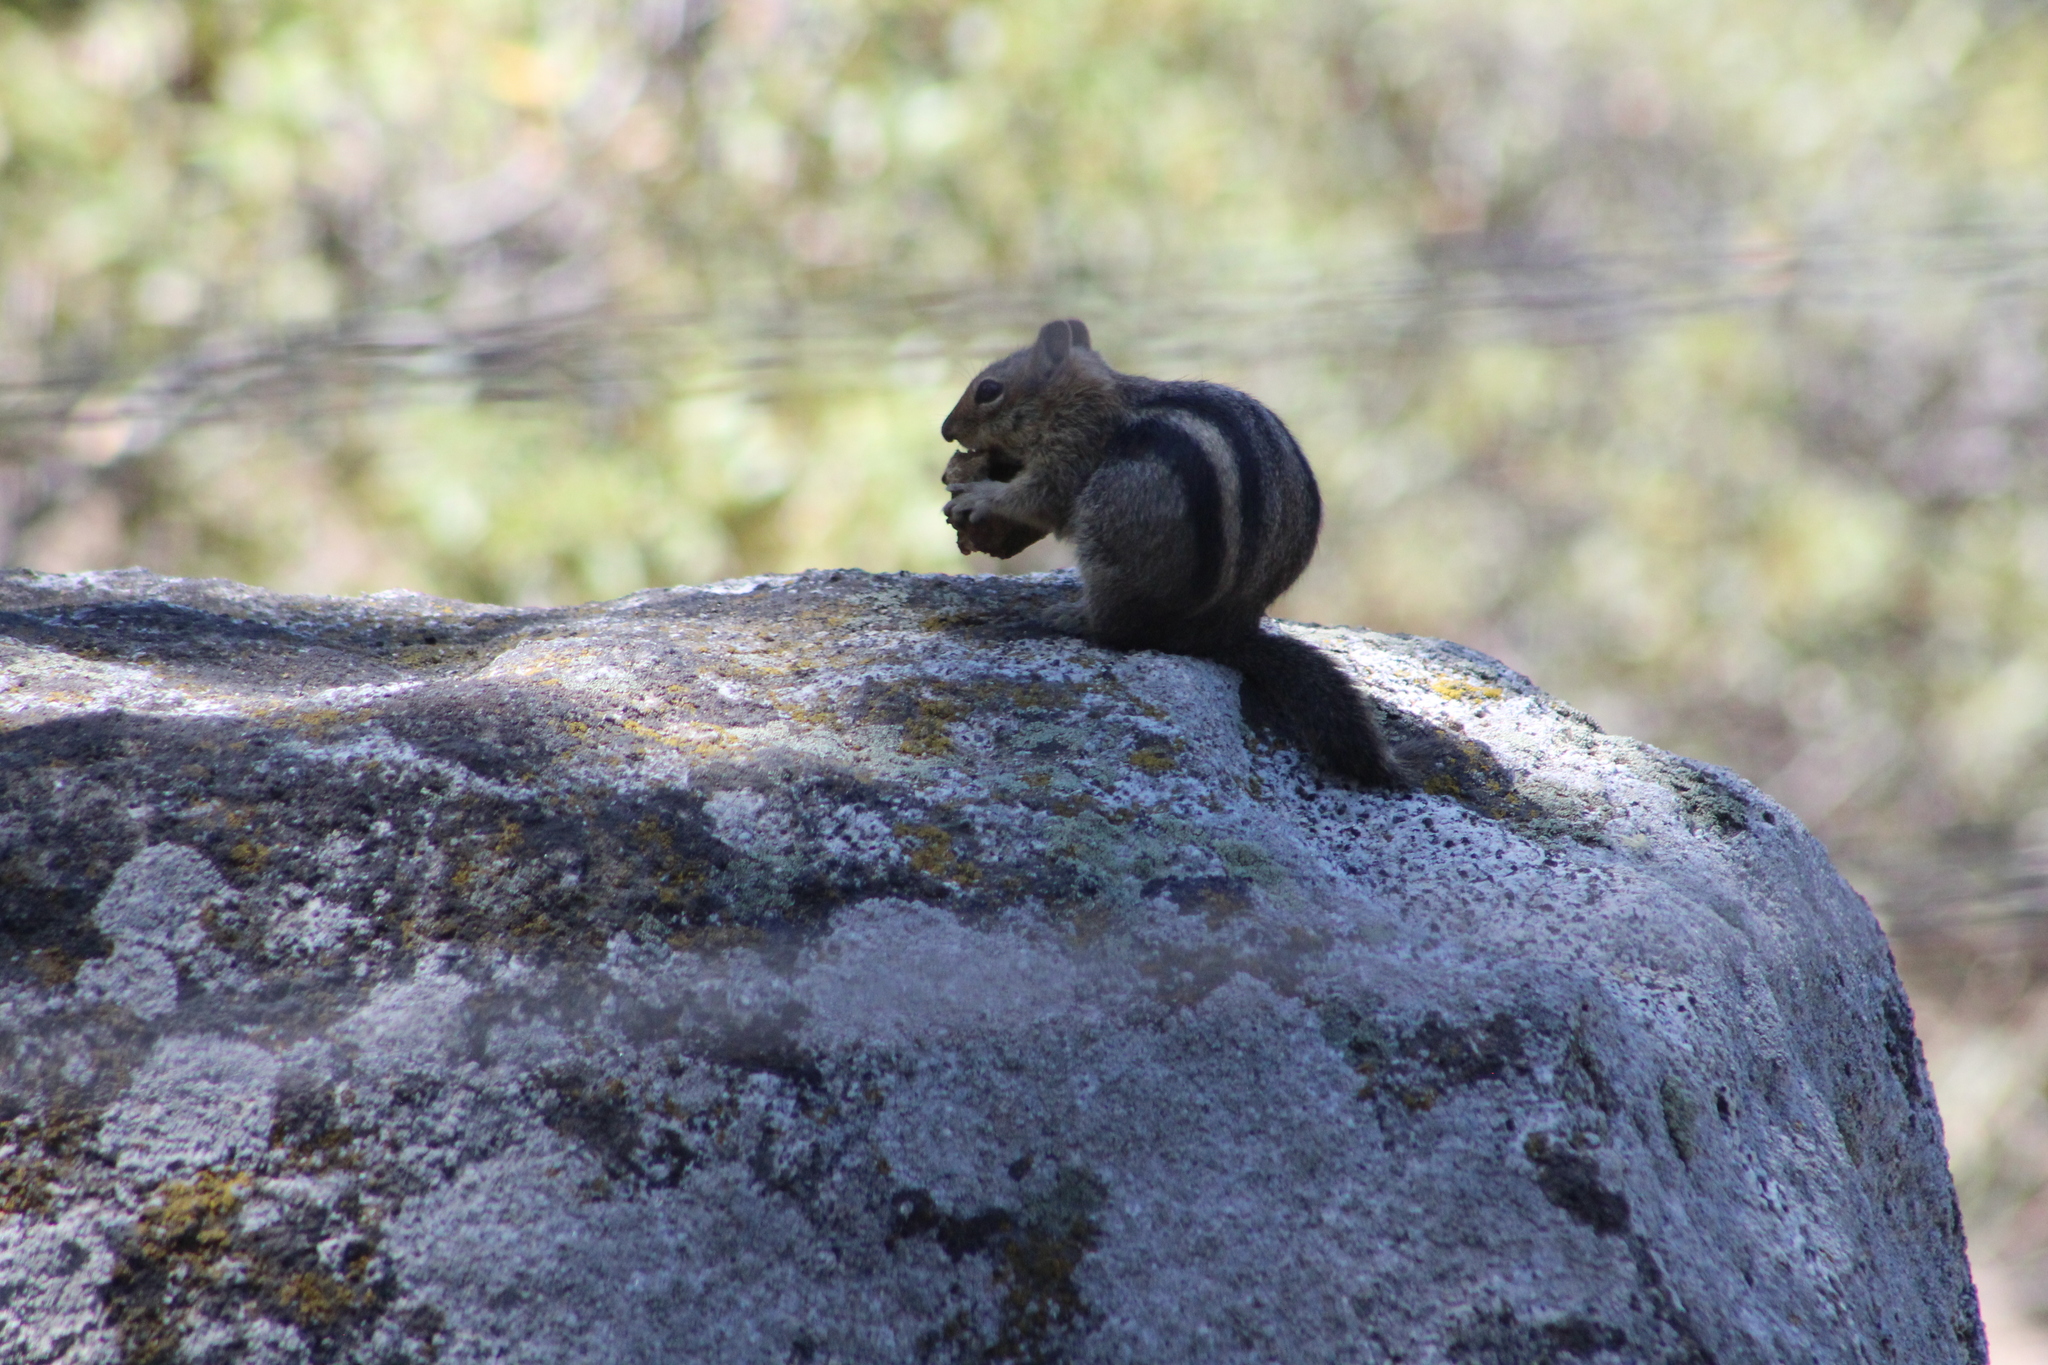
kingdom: Animalia
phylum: Chordata
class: Mammalia
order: Rodentia
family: Sciuridae
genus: Callospermophilus
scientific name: Callospermophilus lateralis
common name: Golden-mantled ground squirrel
